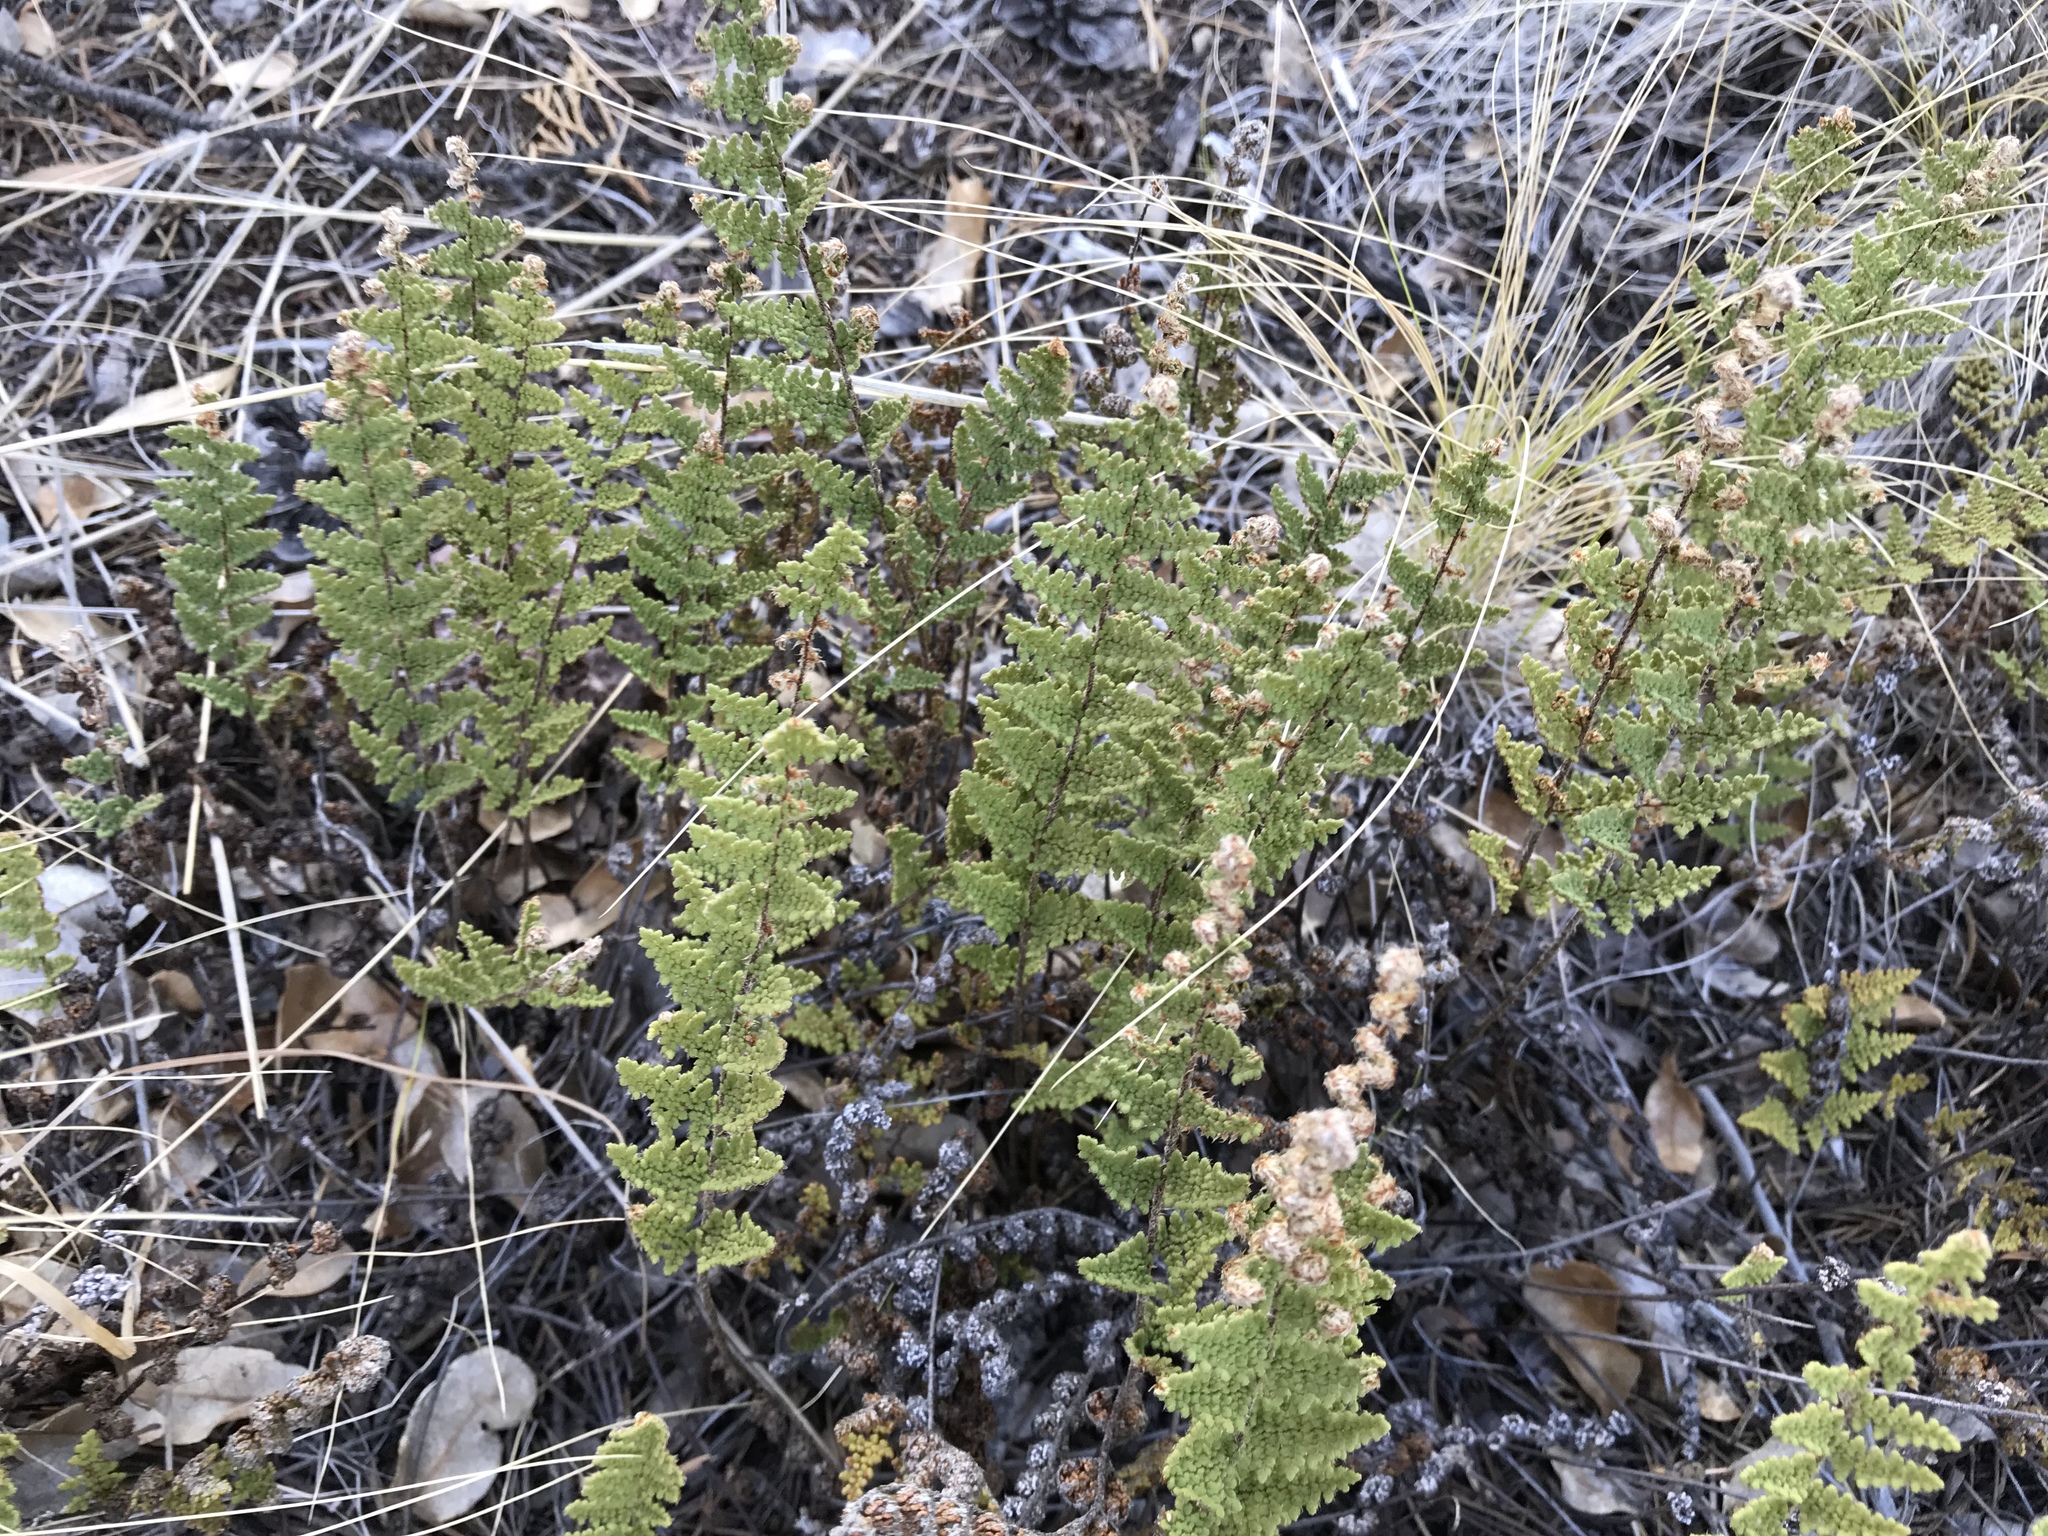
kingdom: Plantae
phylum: Tracheophyta
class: Polypodiopsida
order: Polypodiales
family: Pteridaceae
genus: Myriopteris
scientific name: Myriopteris fendleri
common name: Fendler's lip fern
